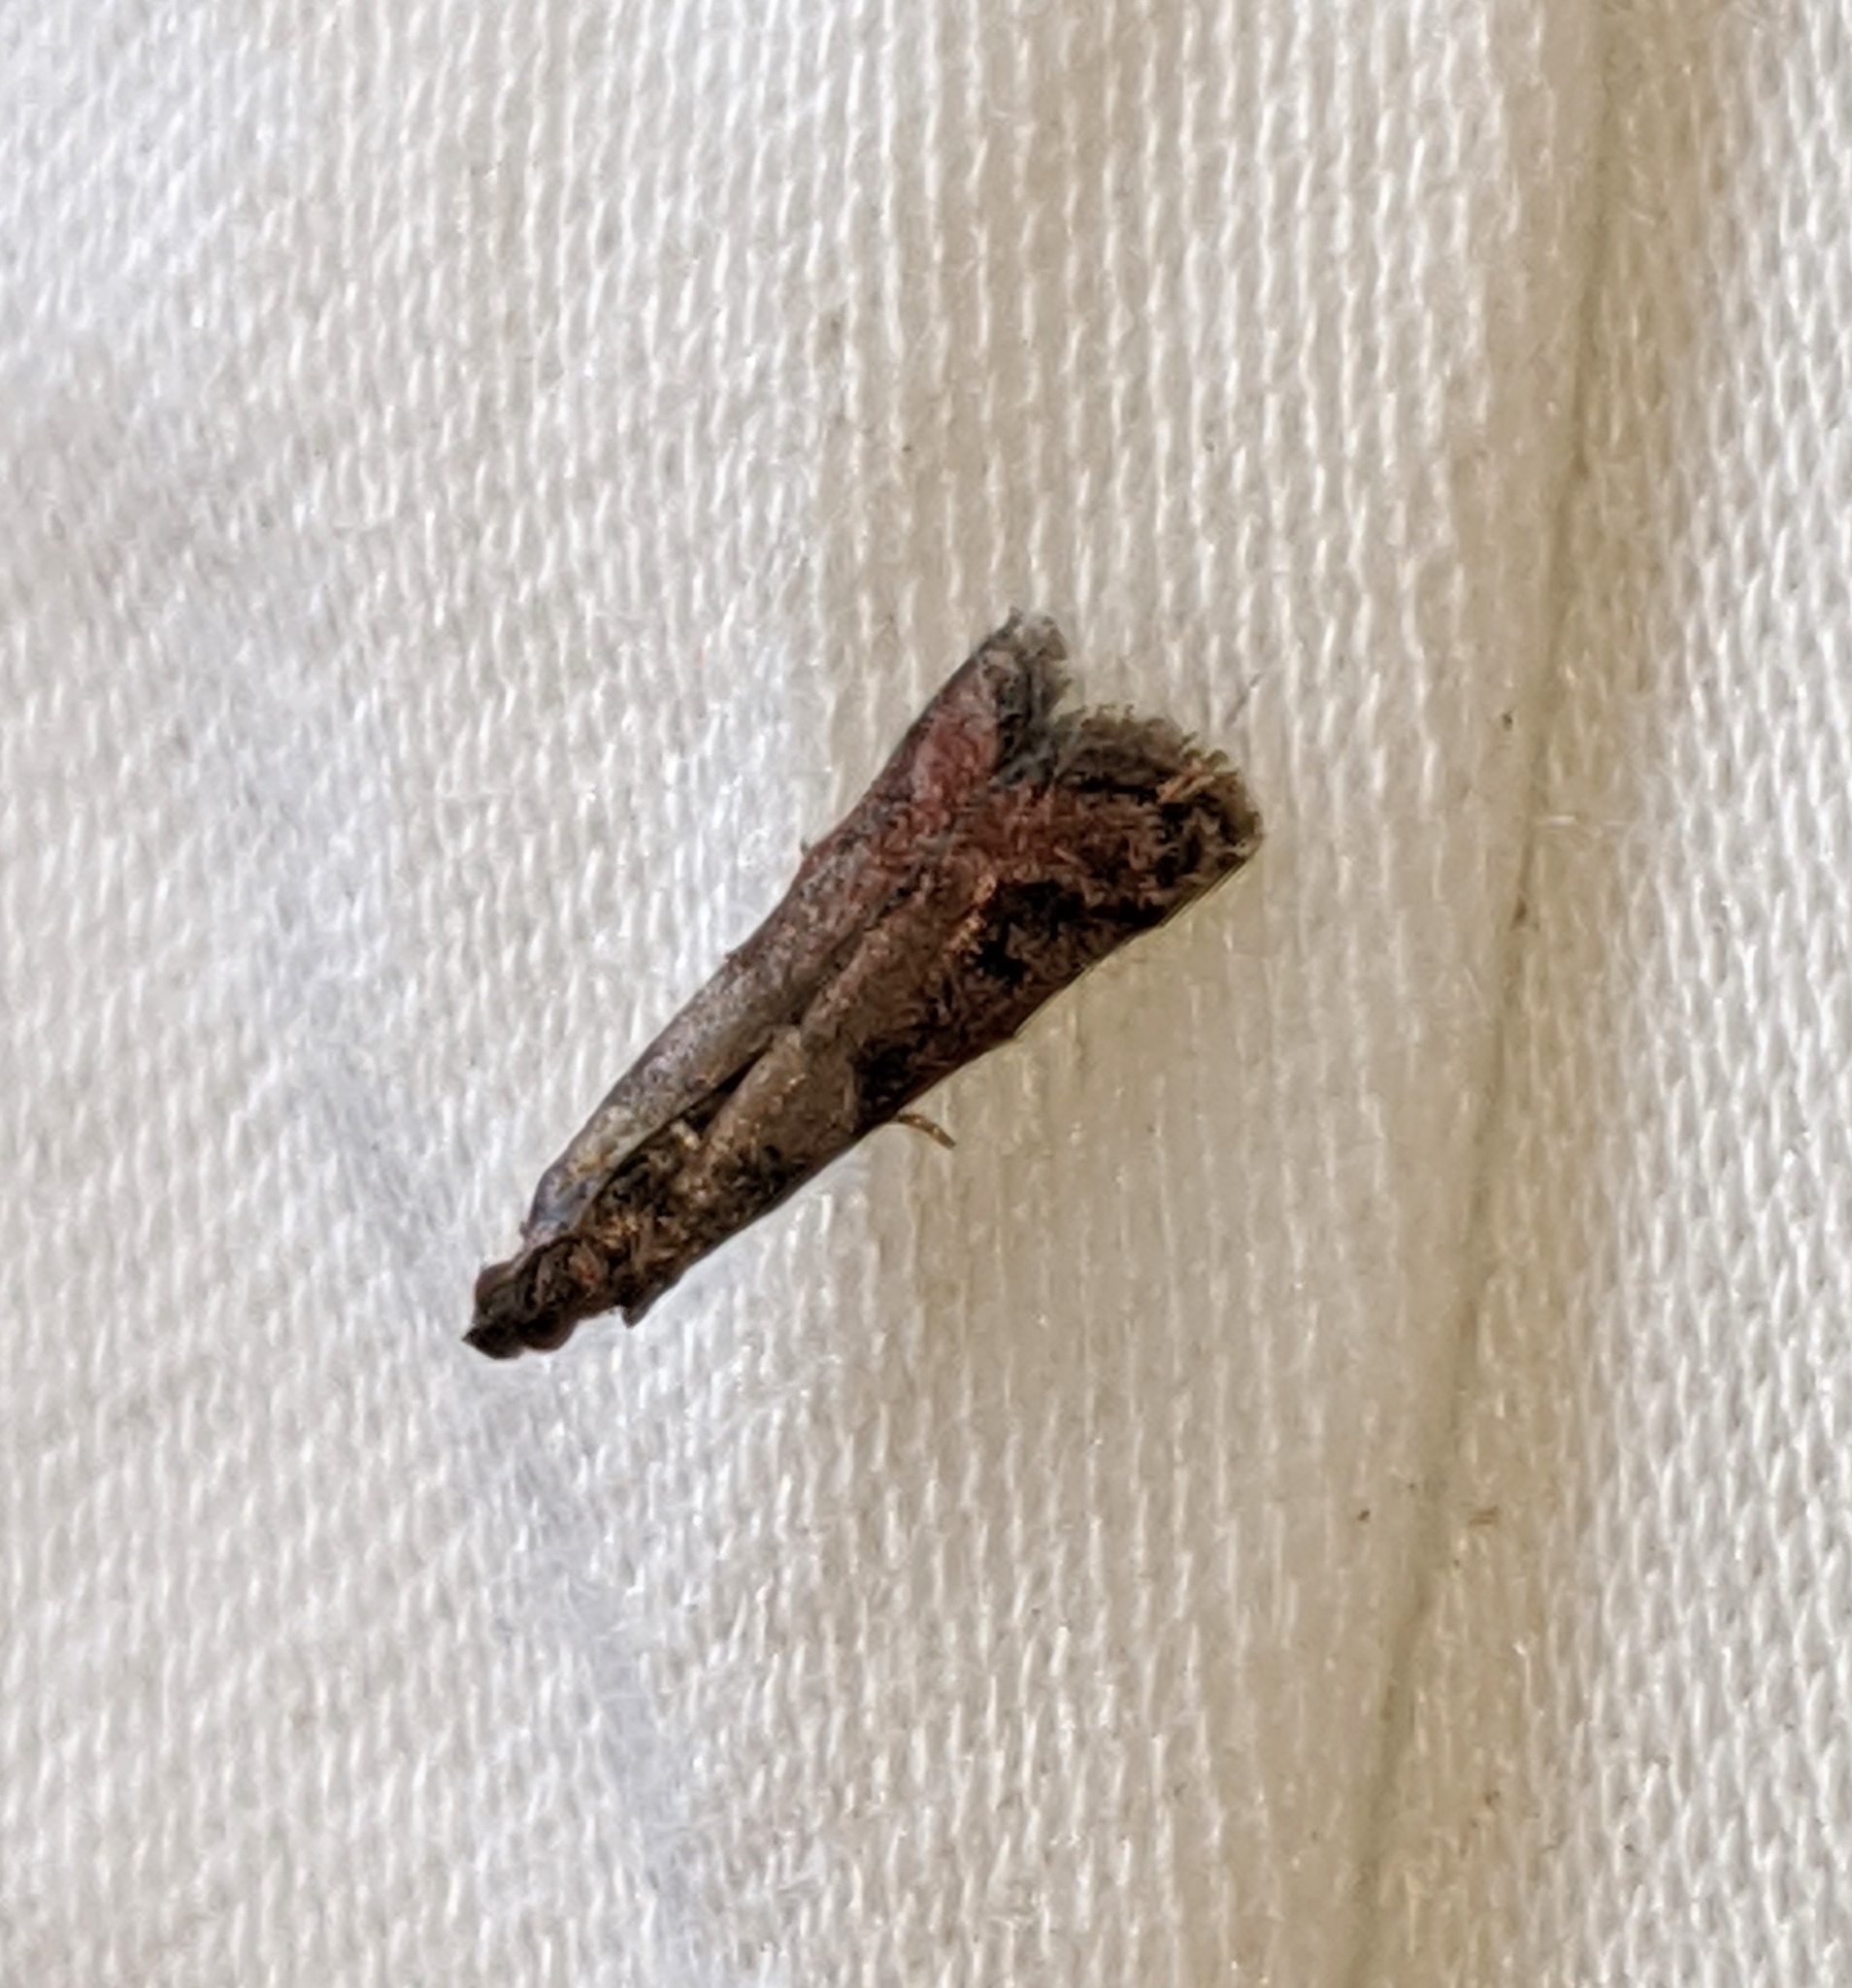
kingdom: Animalia
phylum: Arthropoda
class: Insecta
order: Lepidoptera
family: Pyralidae
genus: Eulogia
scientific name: Eulogia ochrifrontella
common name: Broad-banded eulogia moth
